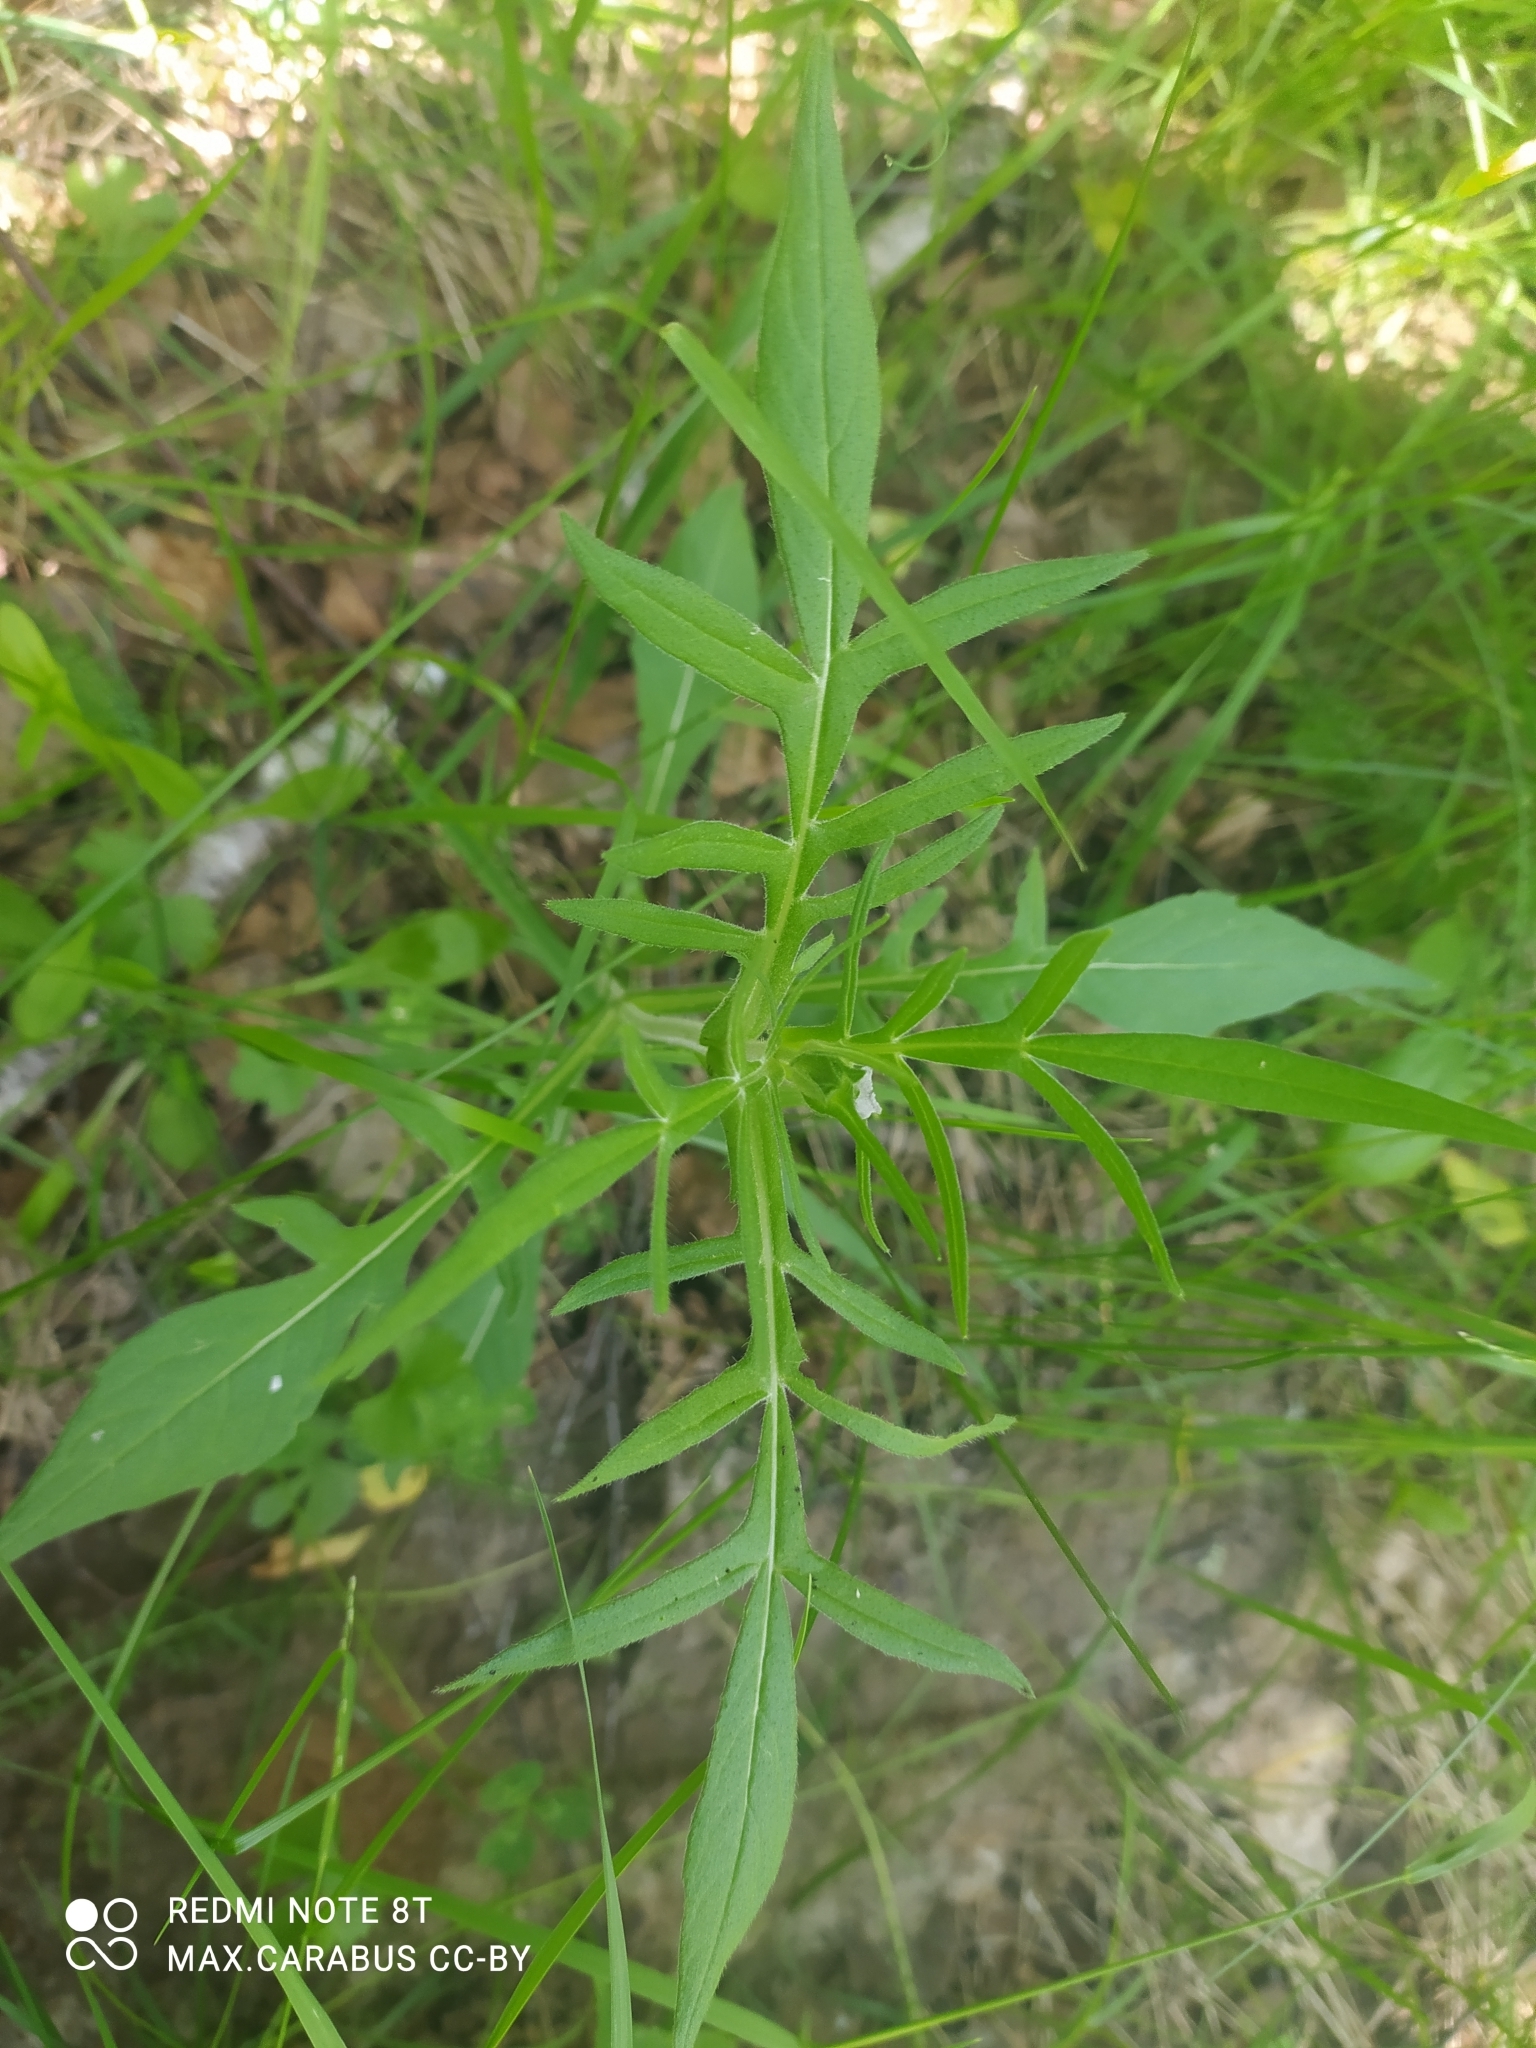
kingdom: Plantae
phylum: Tracheophyta
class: Magnoliopsida
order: Dipsacales
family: Caprifoliaceae
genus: Knautia
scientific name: Knautia arvensis
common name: Field scabiosa
